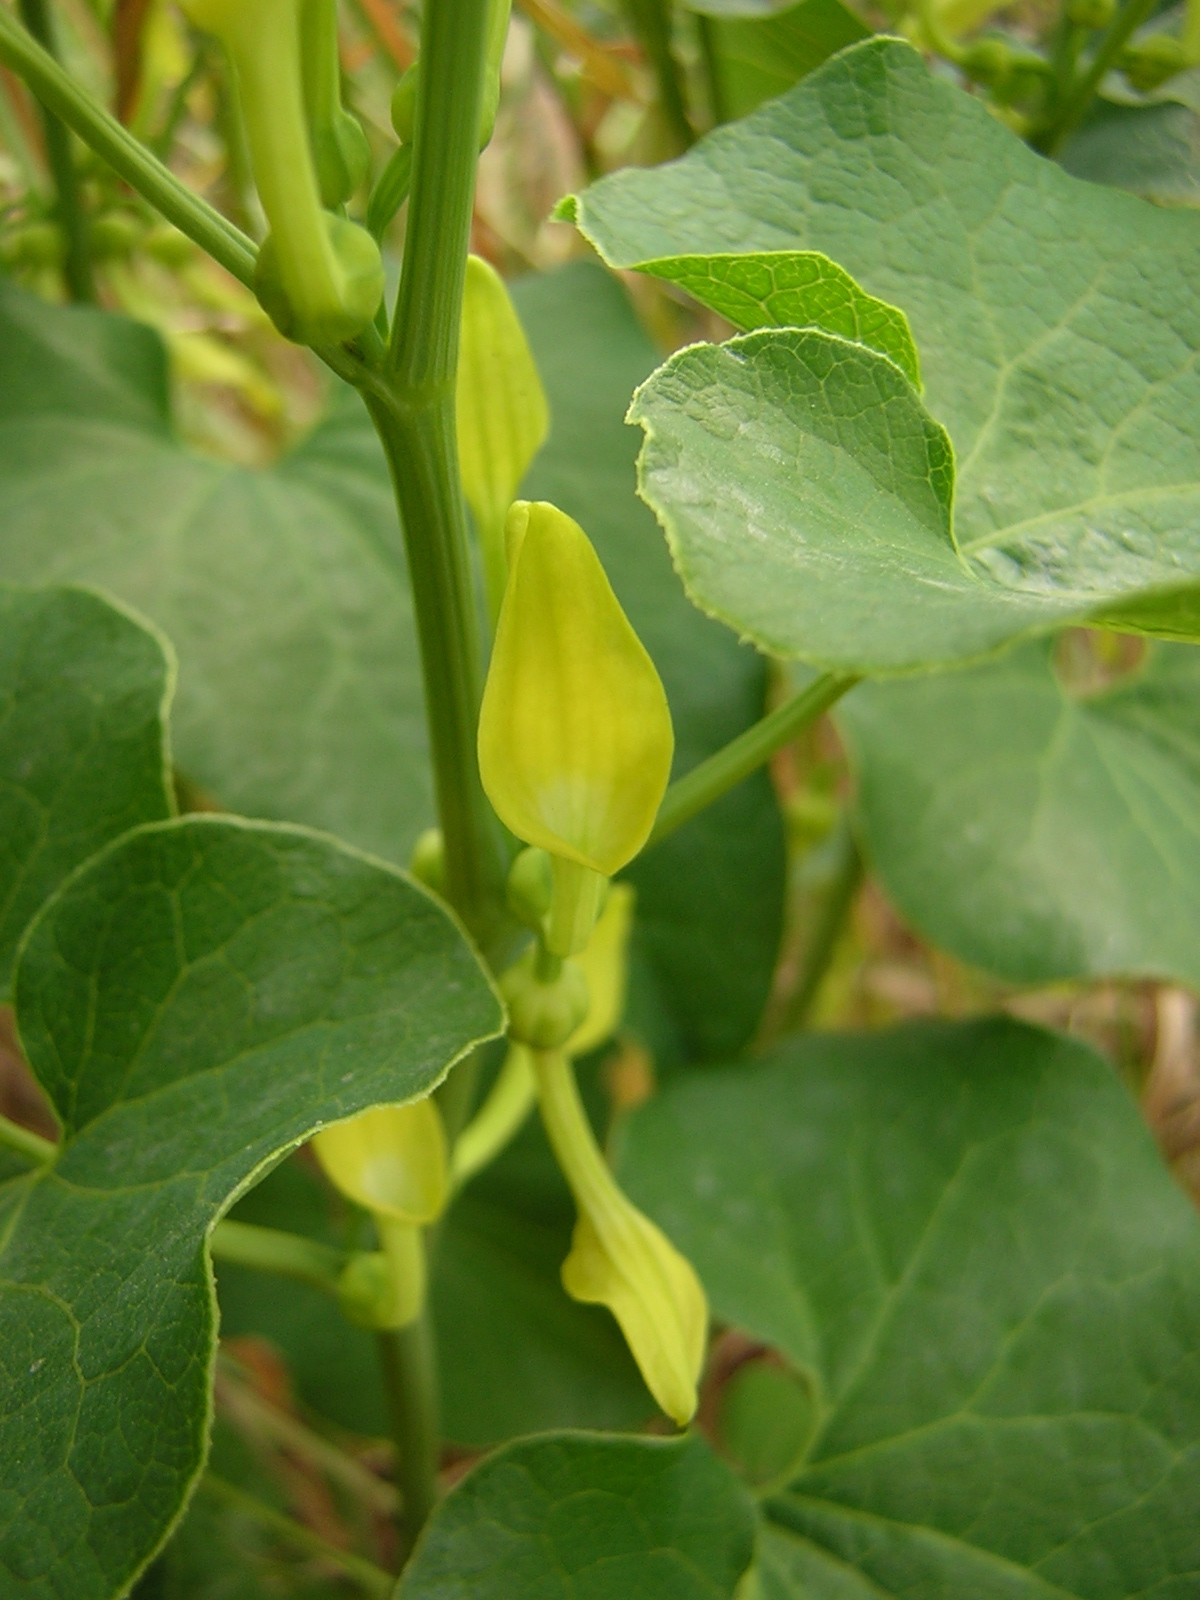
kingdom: Plantae
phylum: Tracheophyta
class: Magnoliopsida
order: Piperales
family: Aristolochiaceae
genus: Aristolochia
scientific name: Aristolochia clematitis
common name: Birthwort
